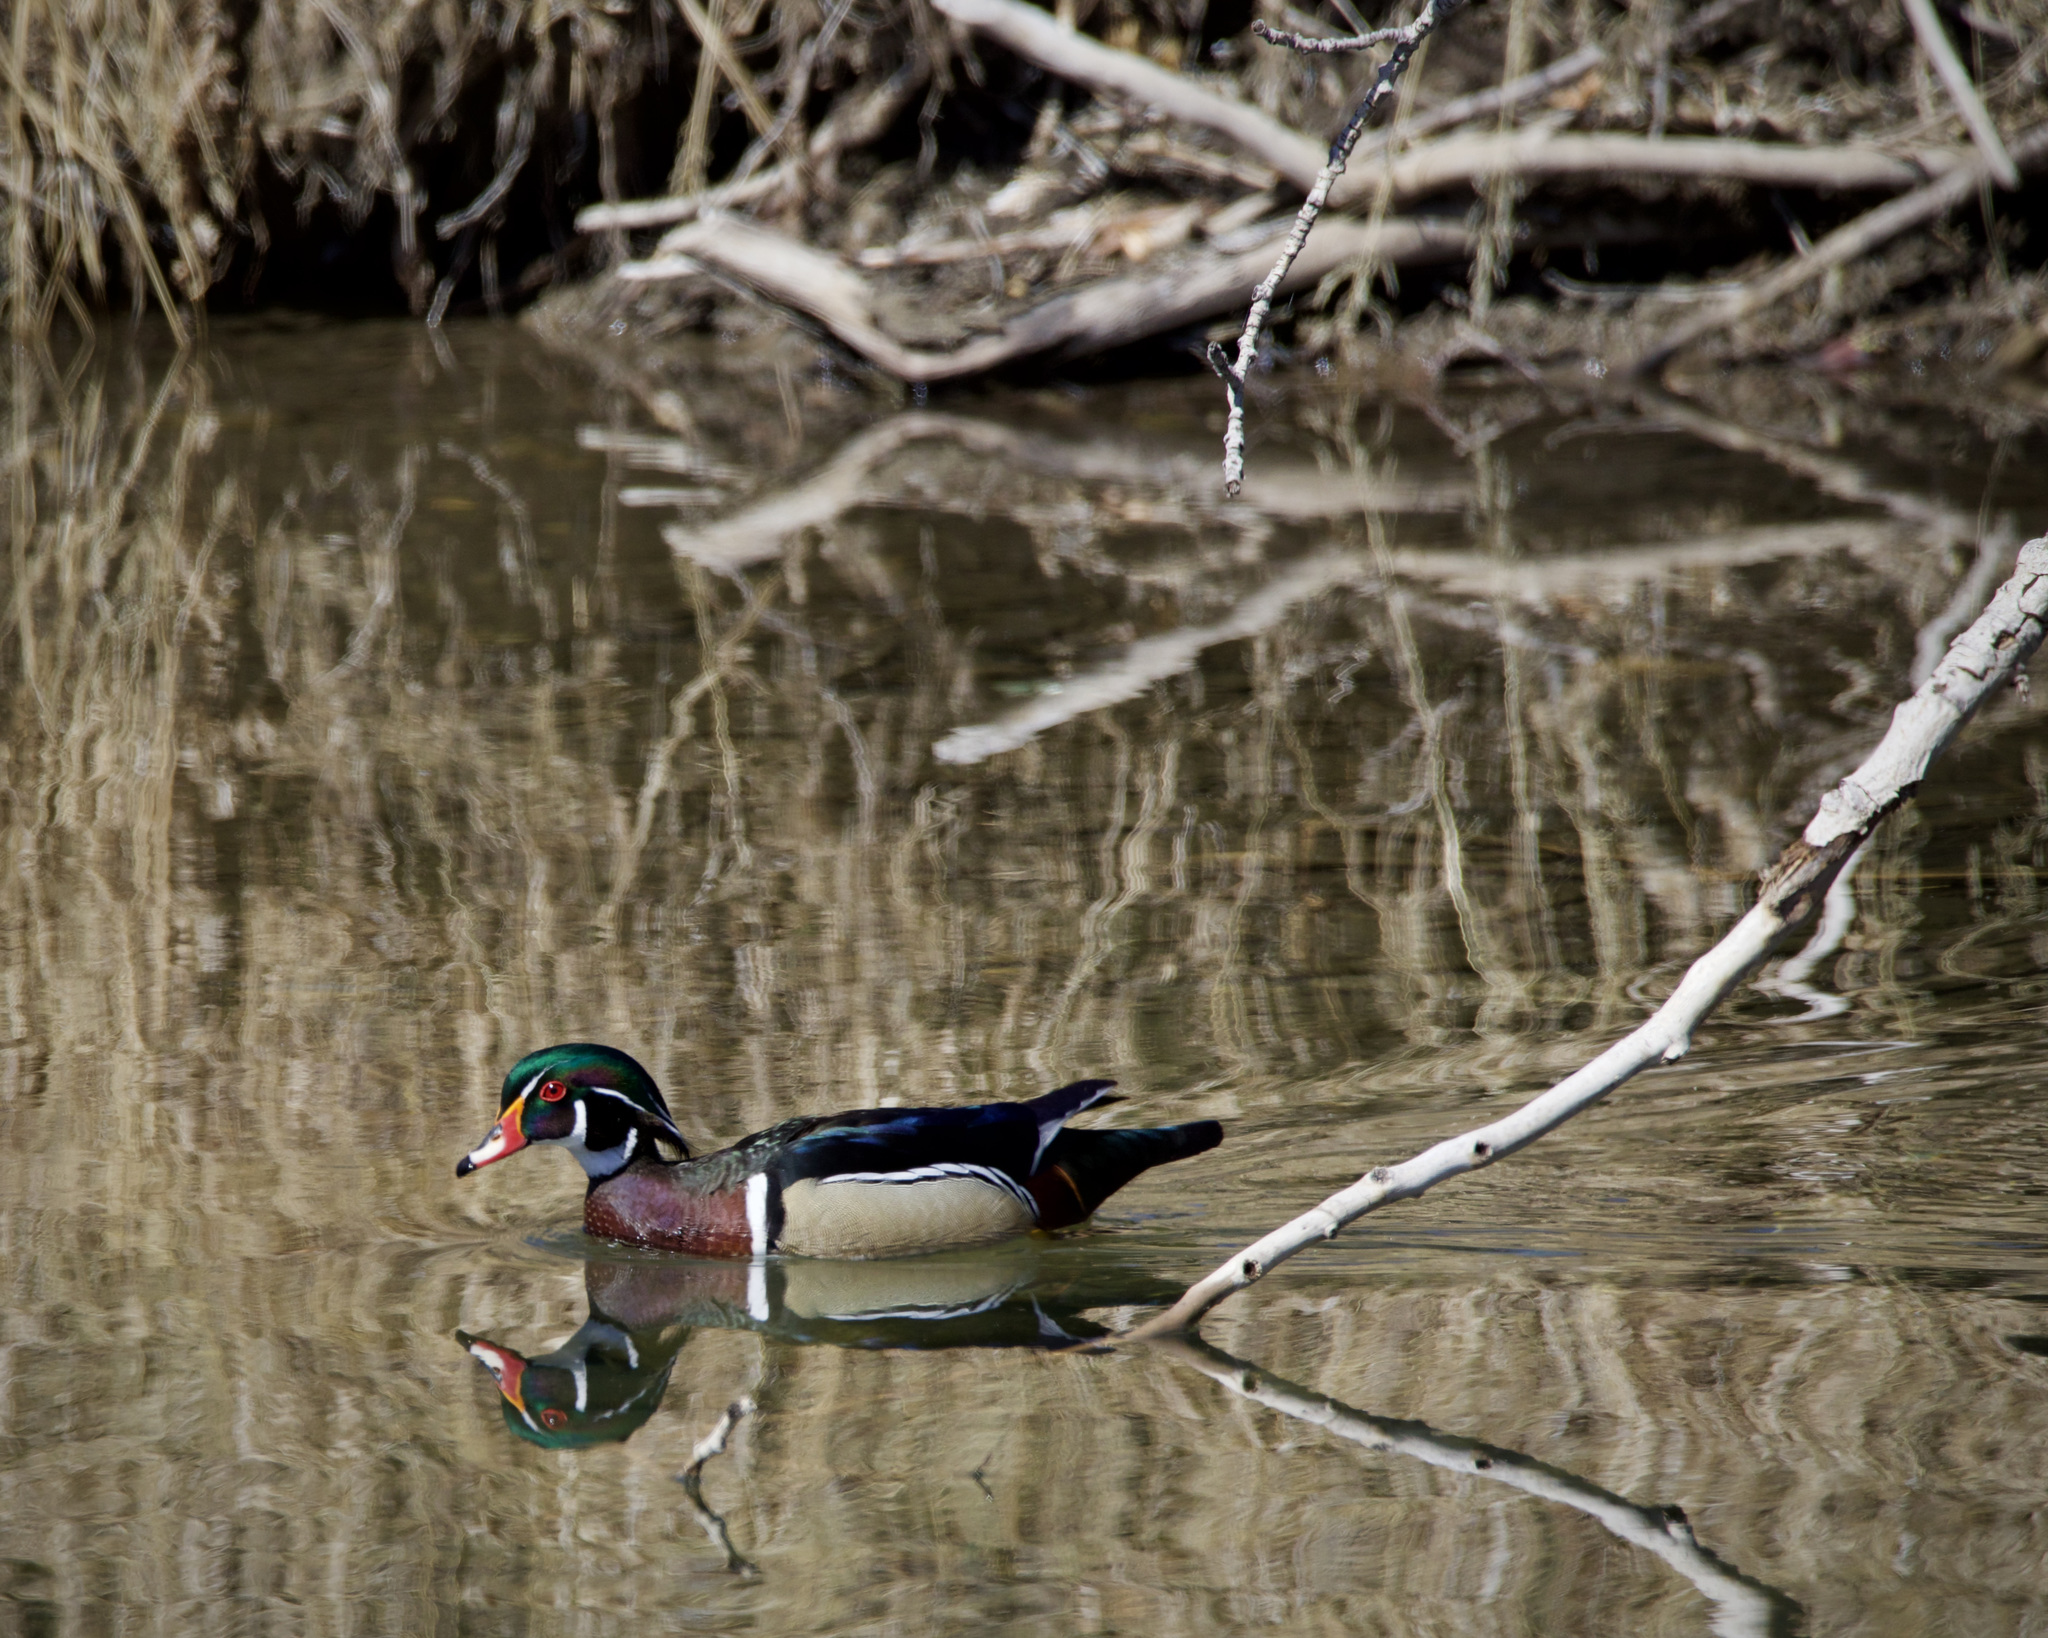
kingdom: Animalia
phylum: Chordata
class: Aves
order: Anseriformes
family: Anatidae
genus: Aix
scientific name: Aix sponsa
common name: Wood duck
